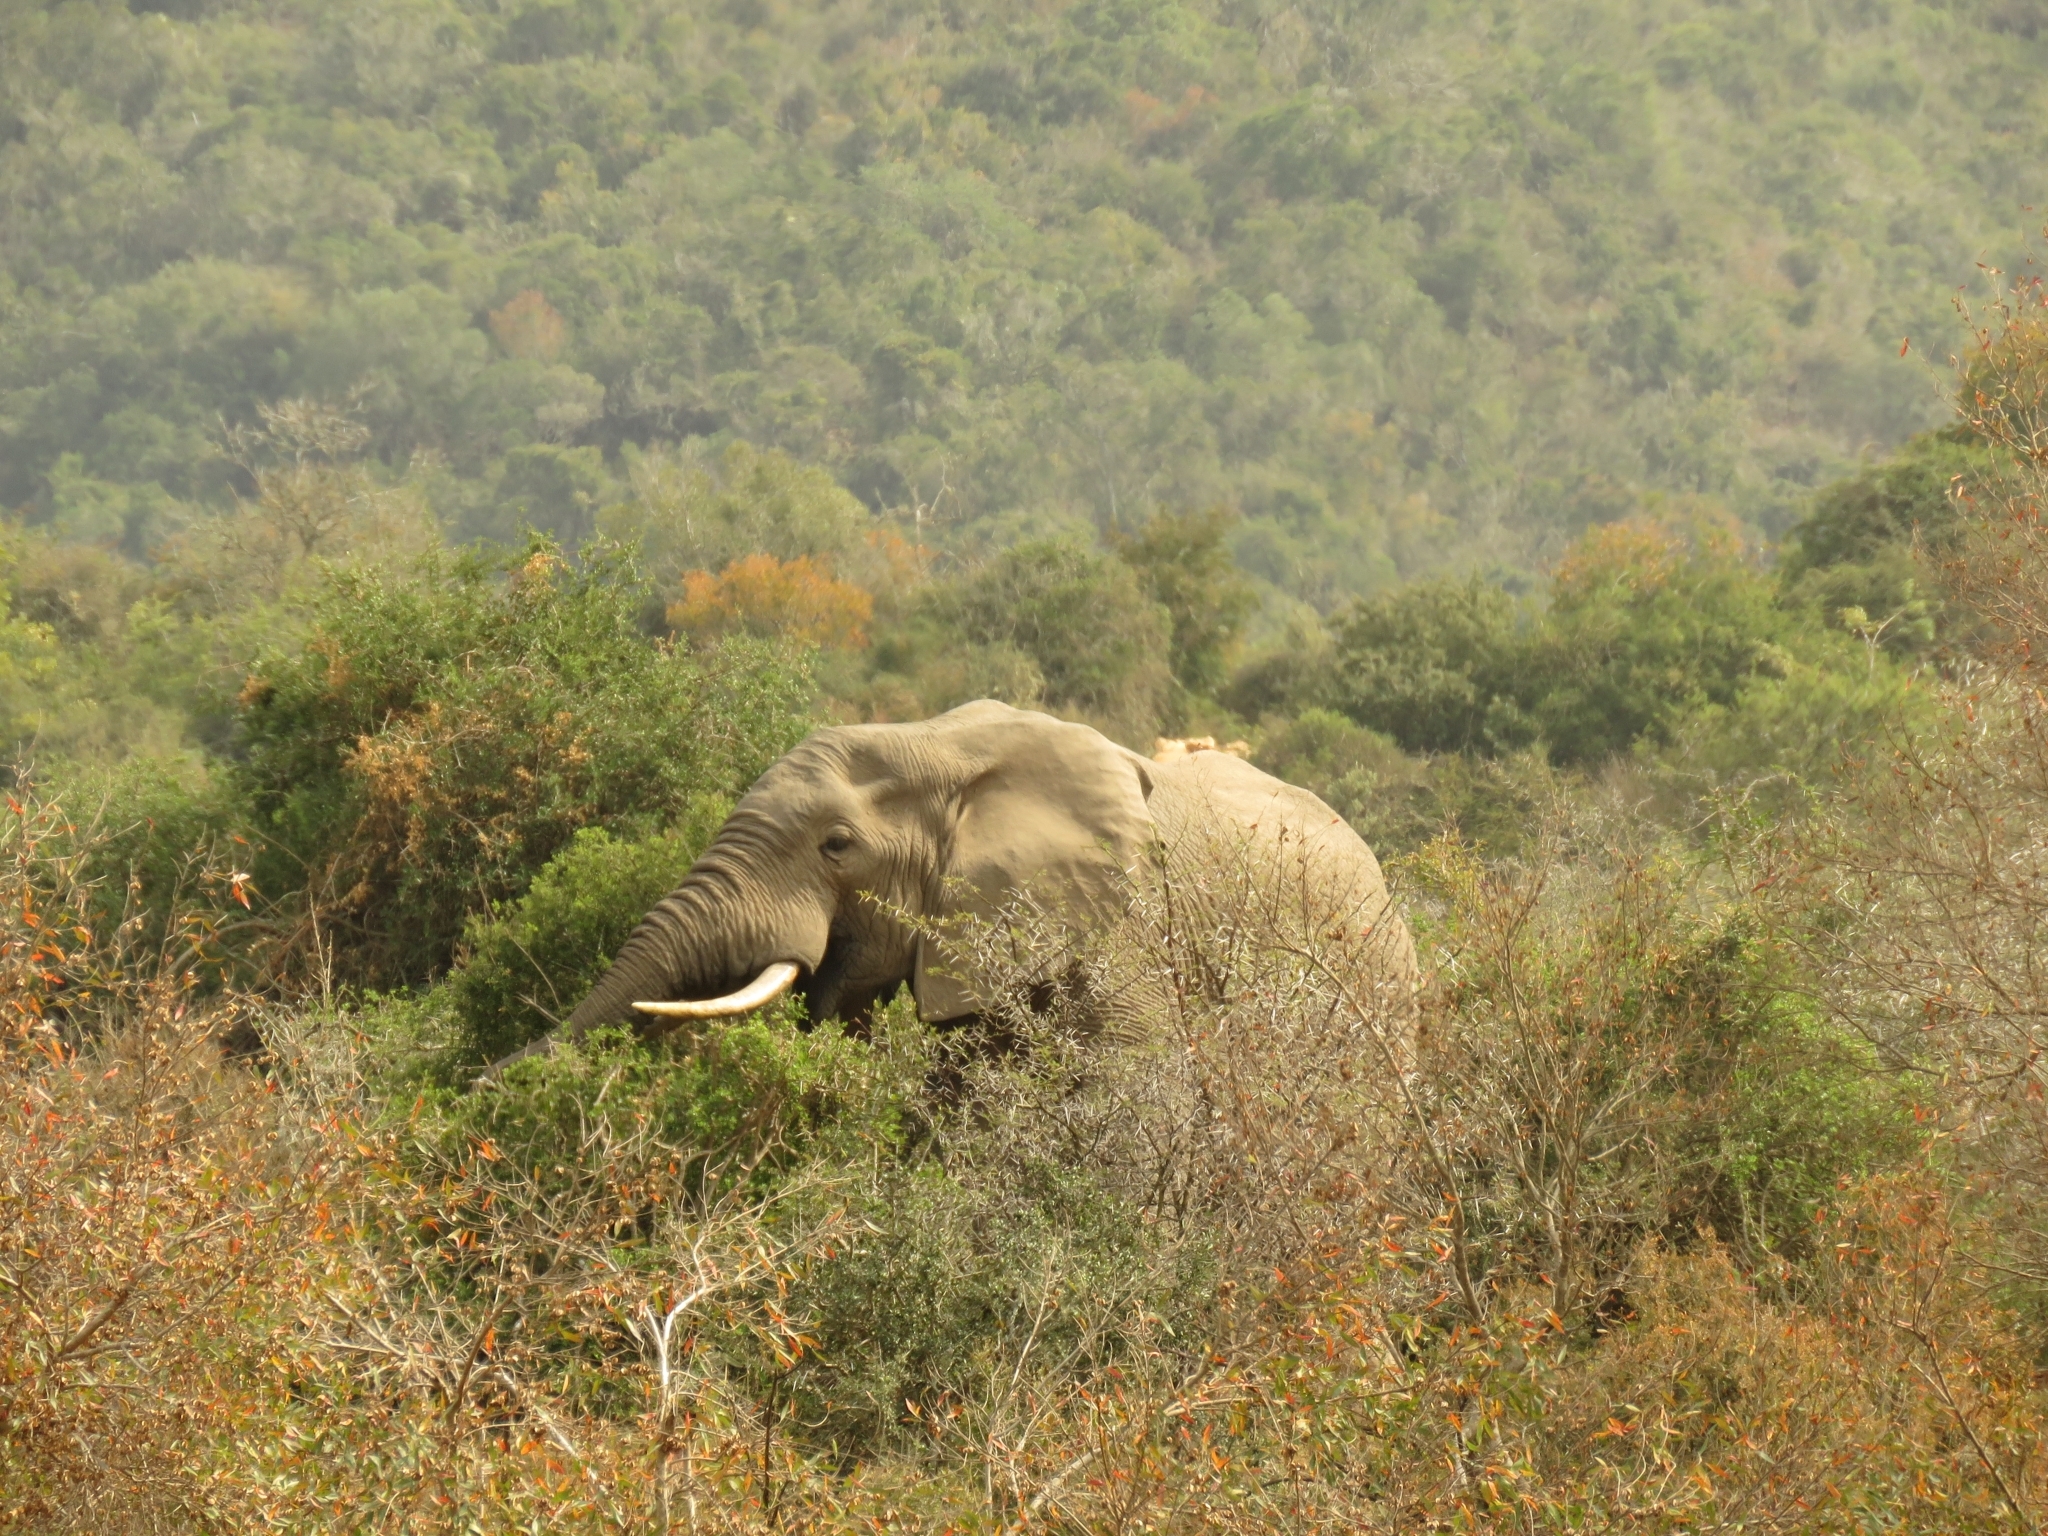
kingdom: Animalia
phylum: Chordata
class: Mammalia
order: Proboscidea
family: Elephantidae
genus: Loxodonta
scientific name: Loxodonta africana
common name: African elephant
